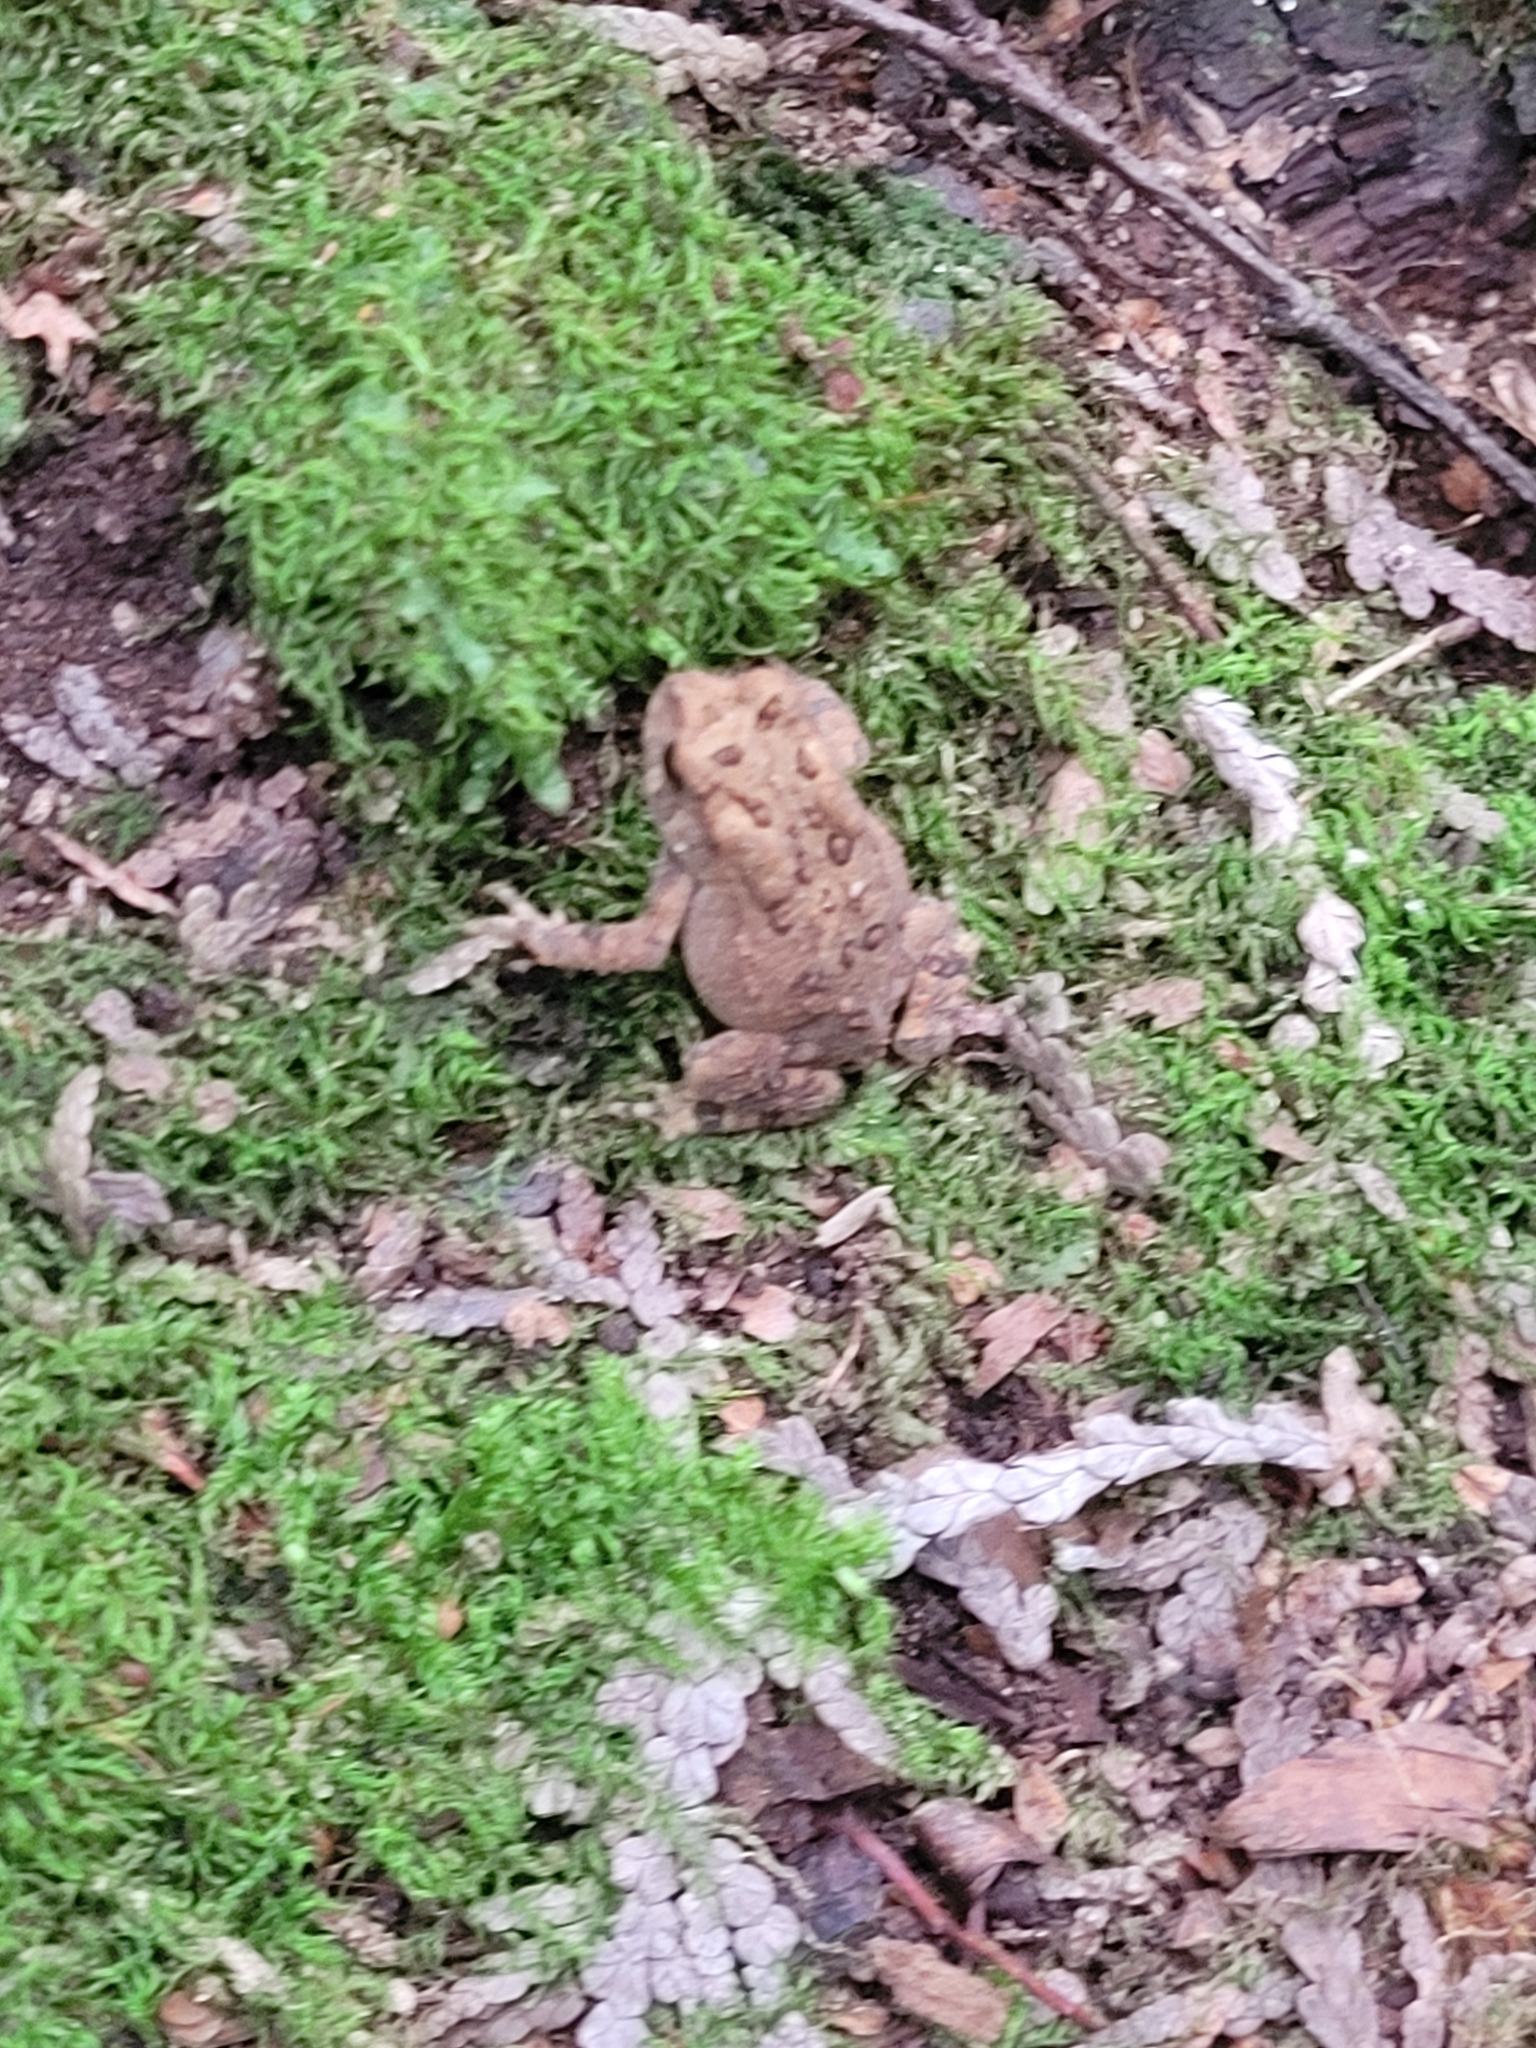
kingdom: Animalia
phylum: Chordata
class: Amphibia
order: Anura
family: Bufonidae
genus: Anaxyrus
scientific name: Anaxyrus americanus
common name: American toad
